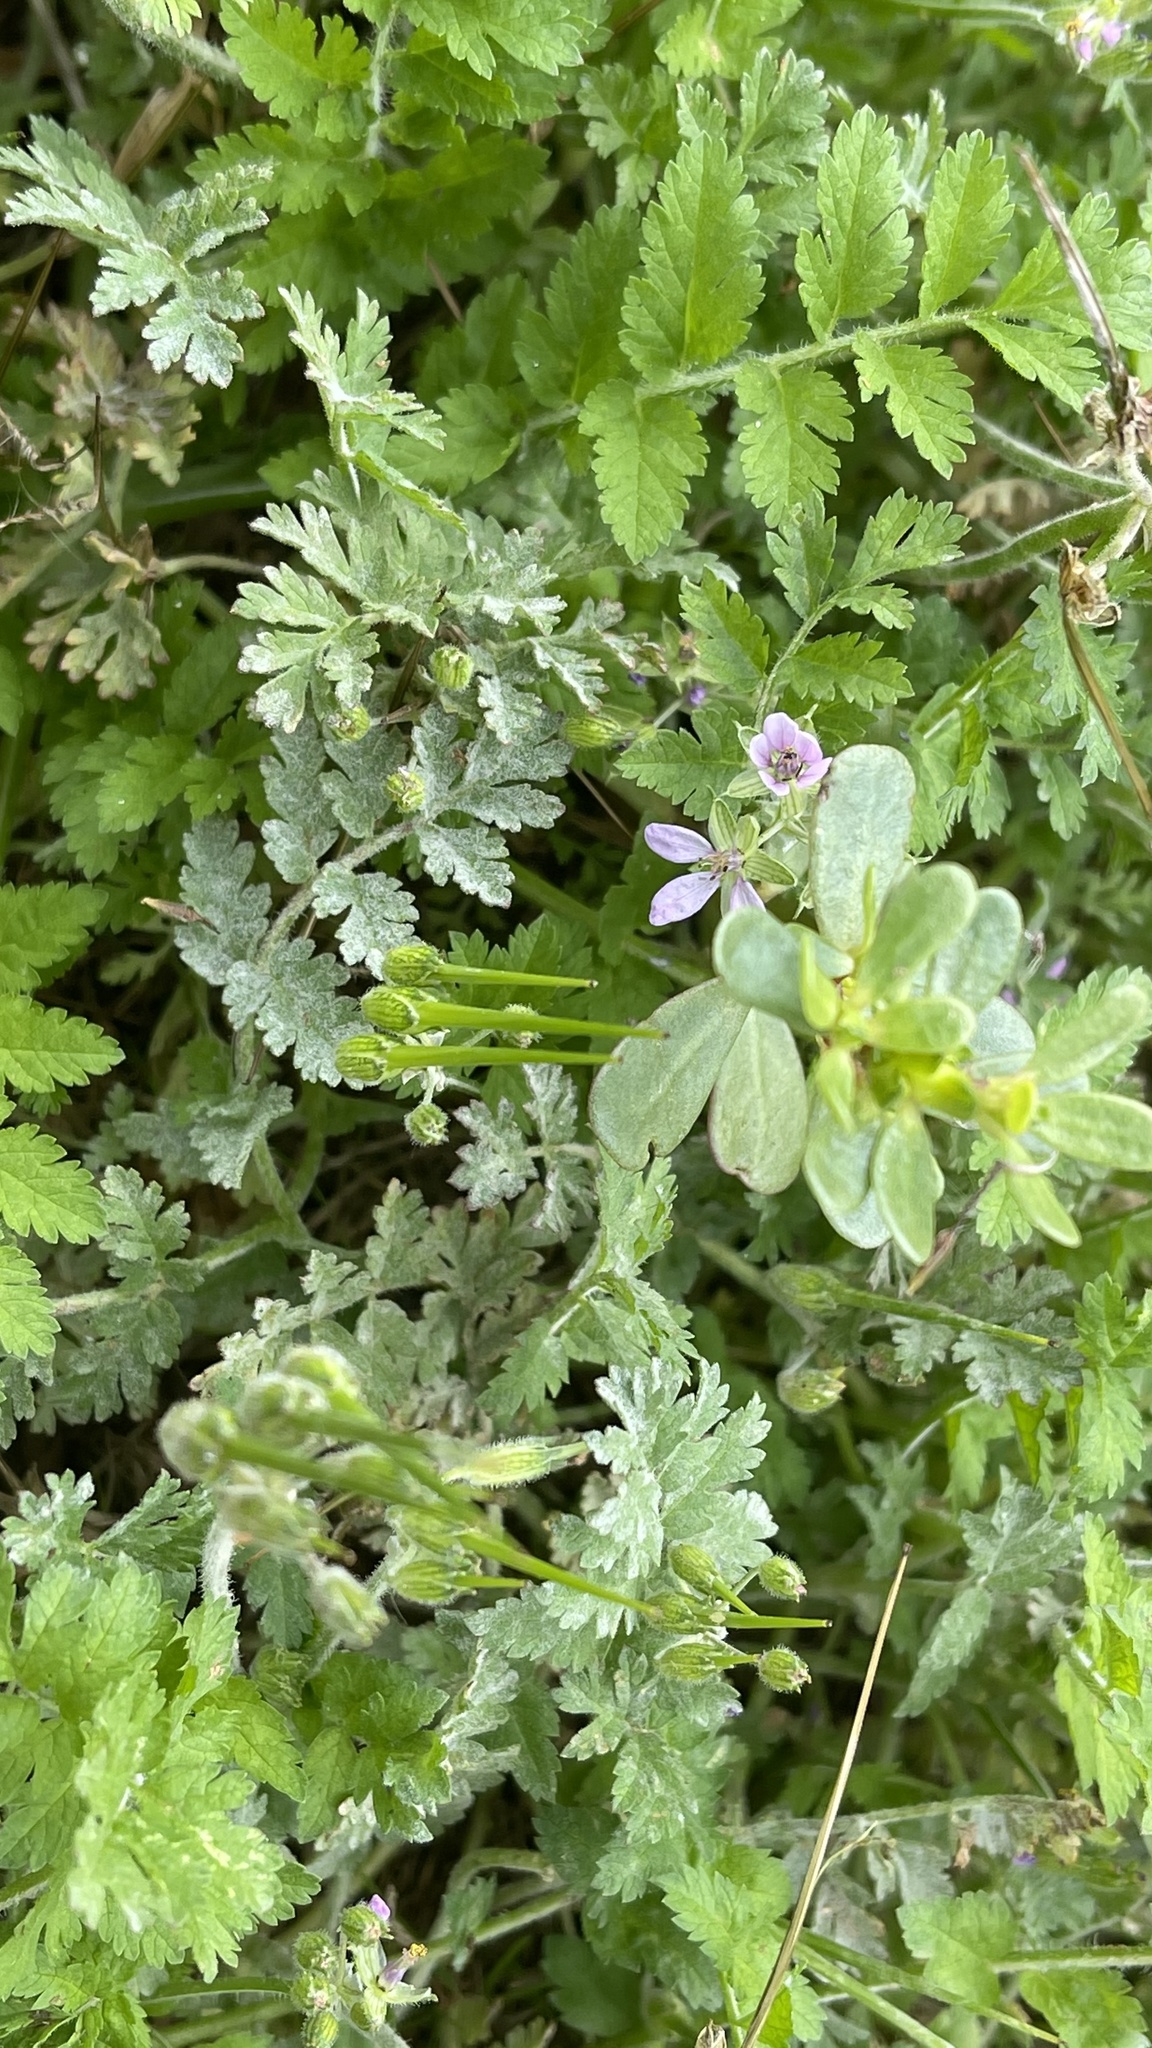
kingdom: Plantae
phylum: Tracheophyta
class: Magnoliopsida
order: Geraniales
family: Geraniaceae
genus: Erodium
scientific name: Erodium moschatum
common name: Musk stork's-bill
